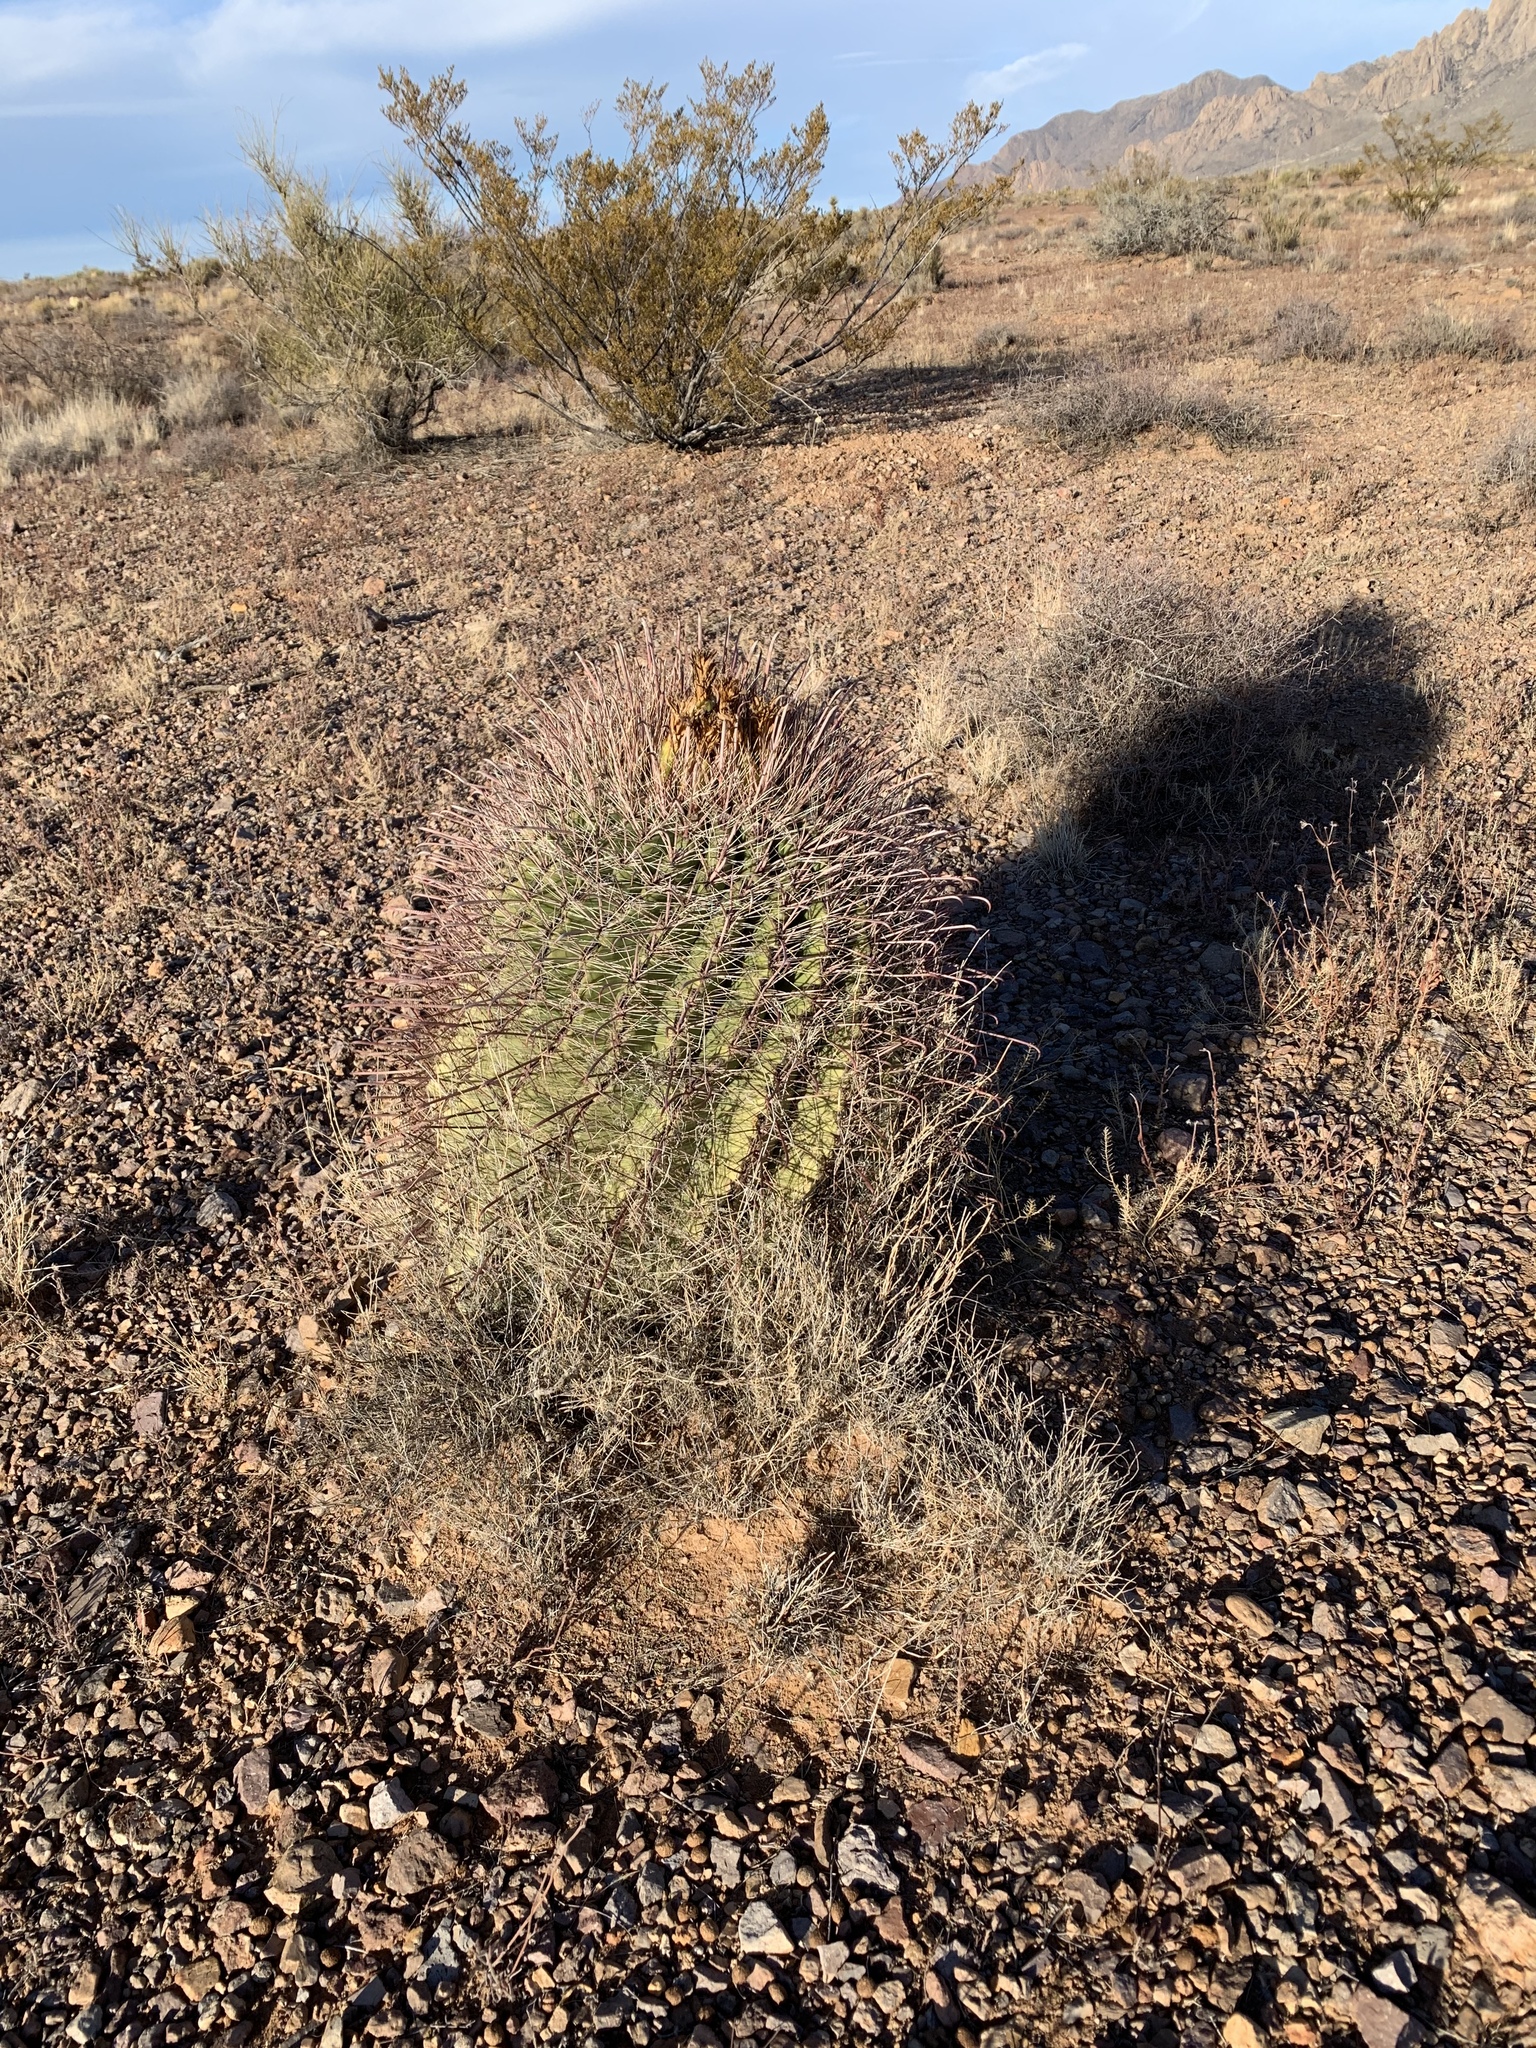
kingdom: Plantae
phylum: Tracheophyta
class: Magnoliopsida
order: Caryophyllales
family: Cactaceae
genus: Ferocactus
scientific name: Ferocactus wislizeni
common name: Candy barrel cactus
